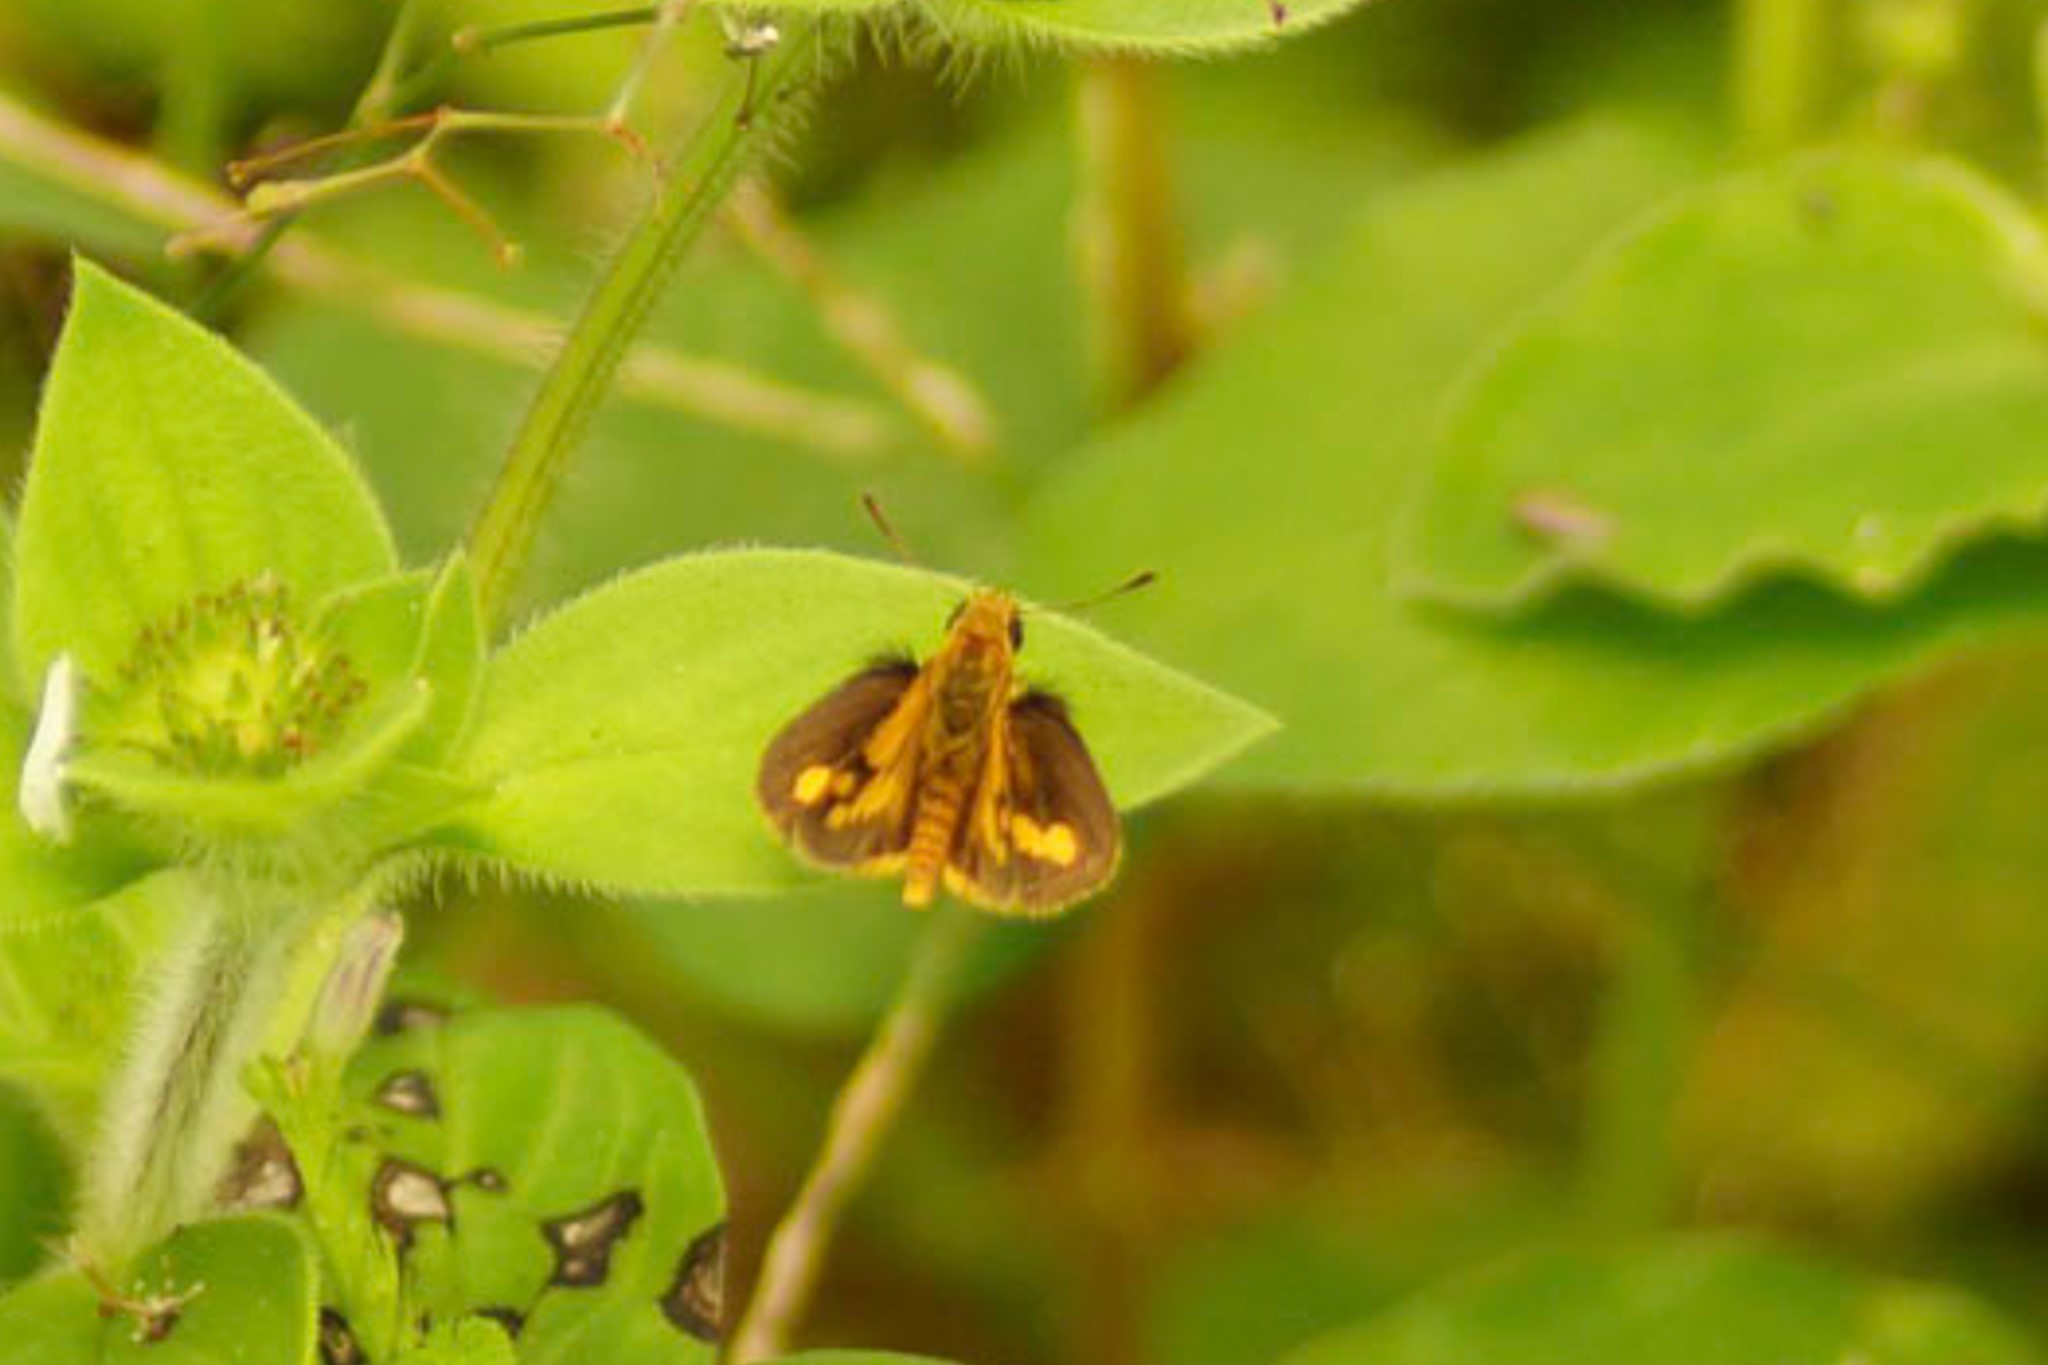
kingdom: Animalia
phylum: Arthropoda
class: Insecta
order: Lepidoptera
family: Hesperiidae
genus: Ocybadistes
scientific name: Ocybadistes walkeri
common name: Yellow-banded dart
